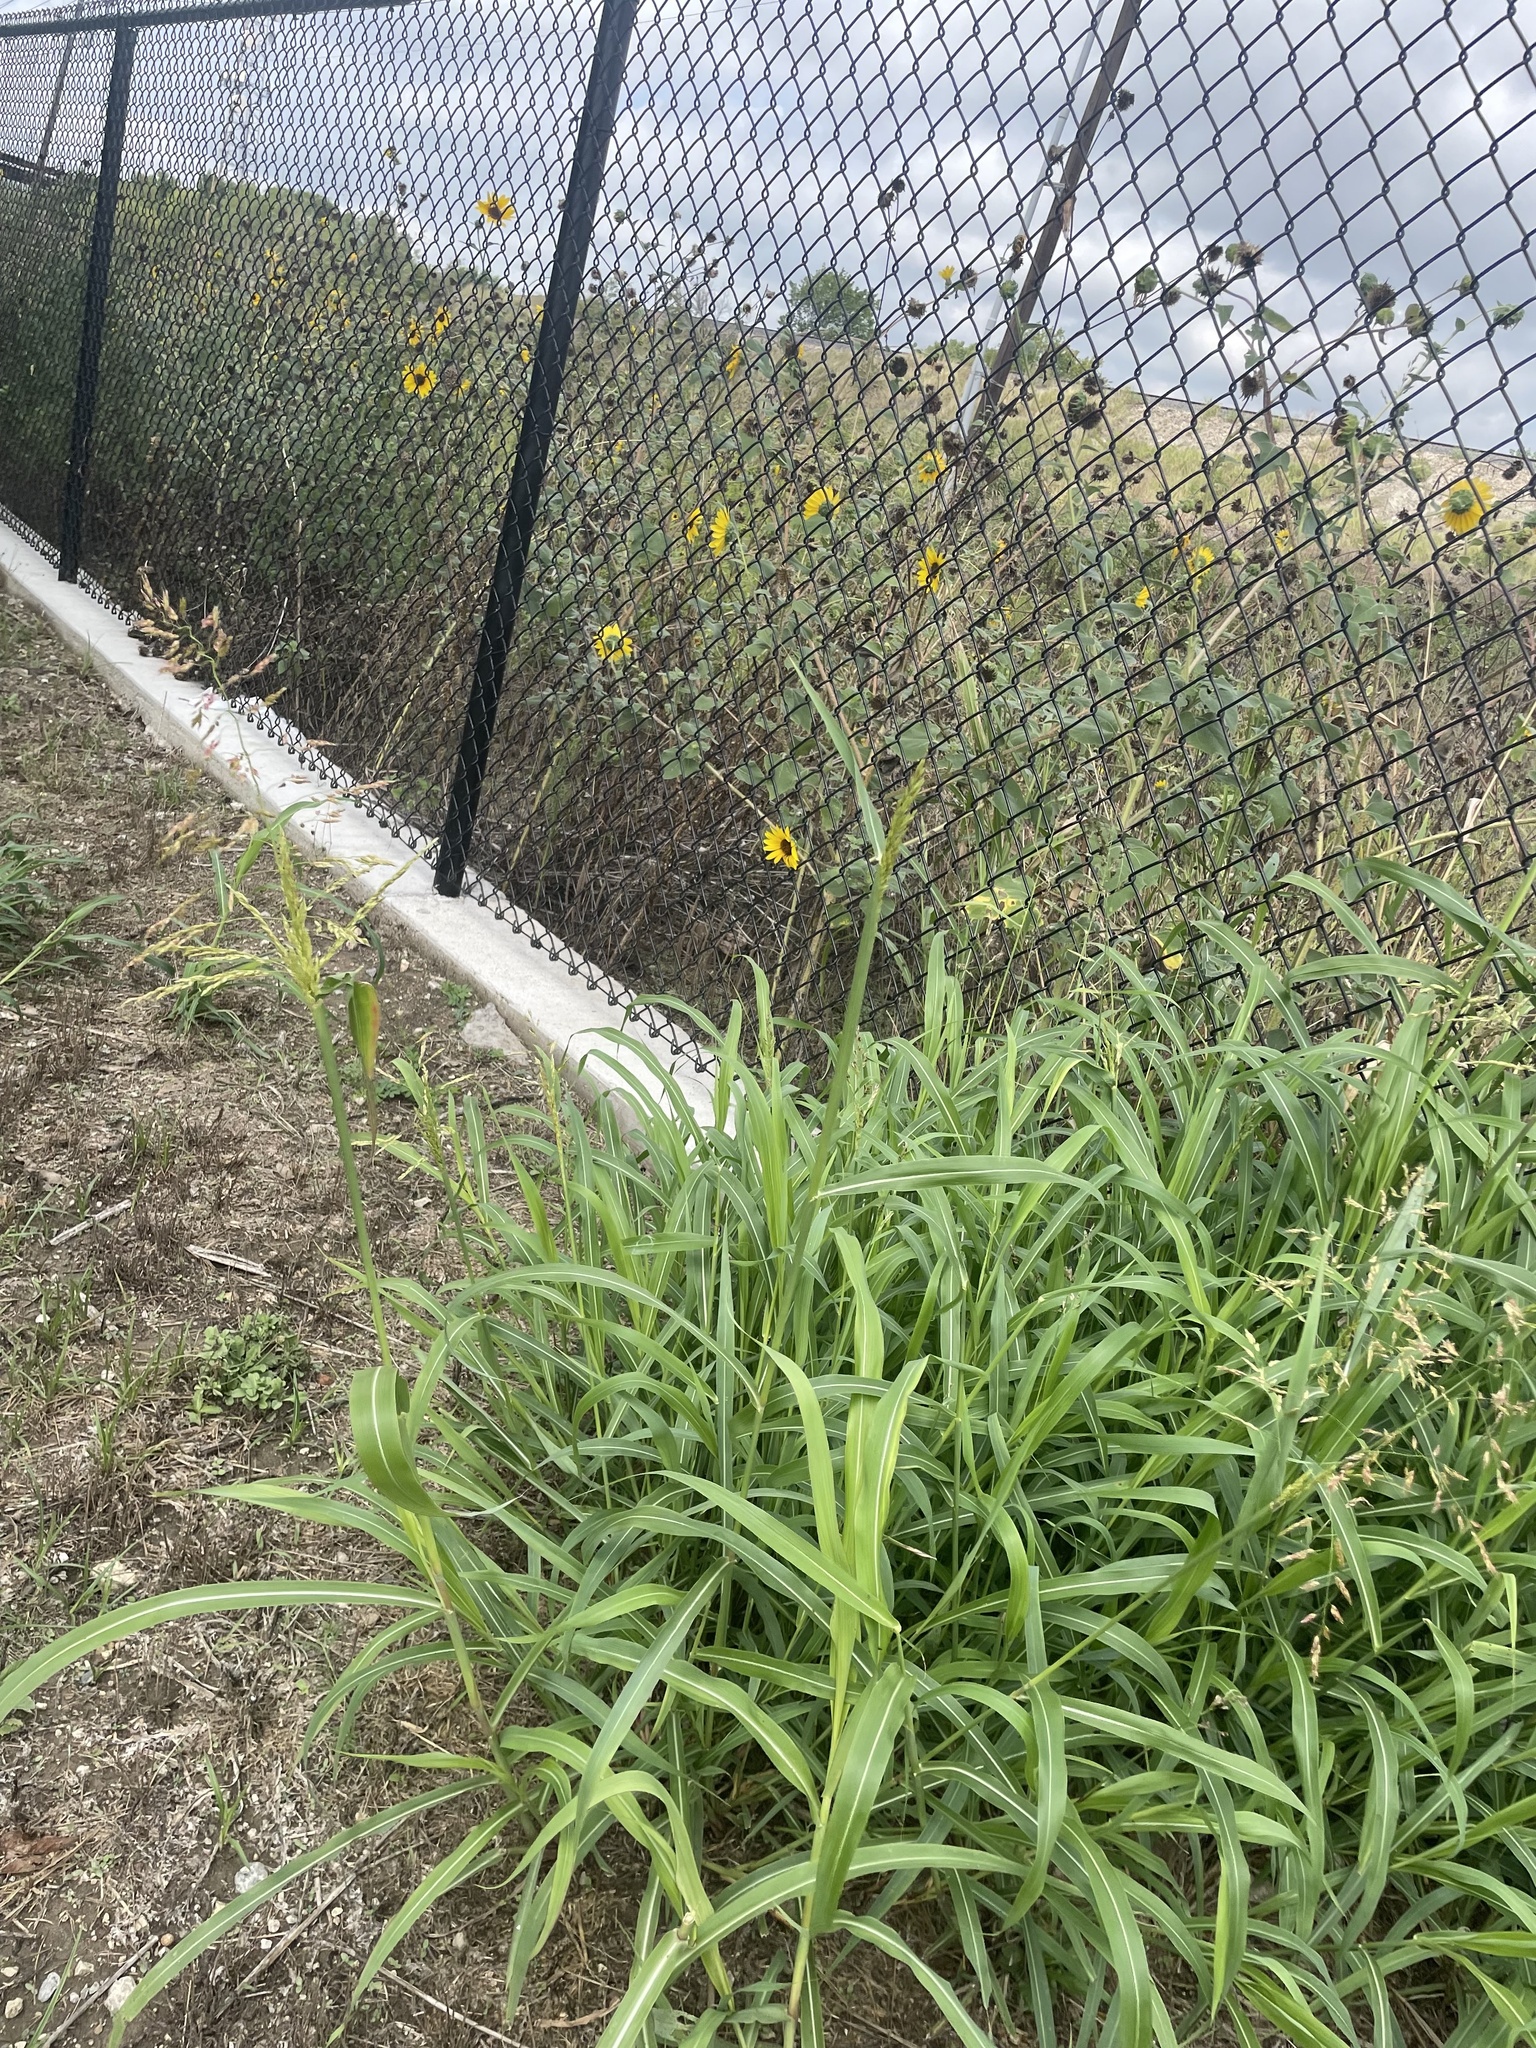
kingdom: Plantae
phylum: Tracheophyta
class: Liliopsida
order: Poales
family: Poaceae
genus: Sorghum
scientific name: Sorghum halepense
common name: Johnson-grass
